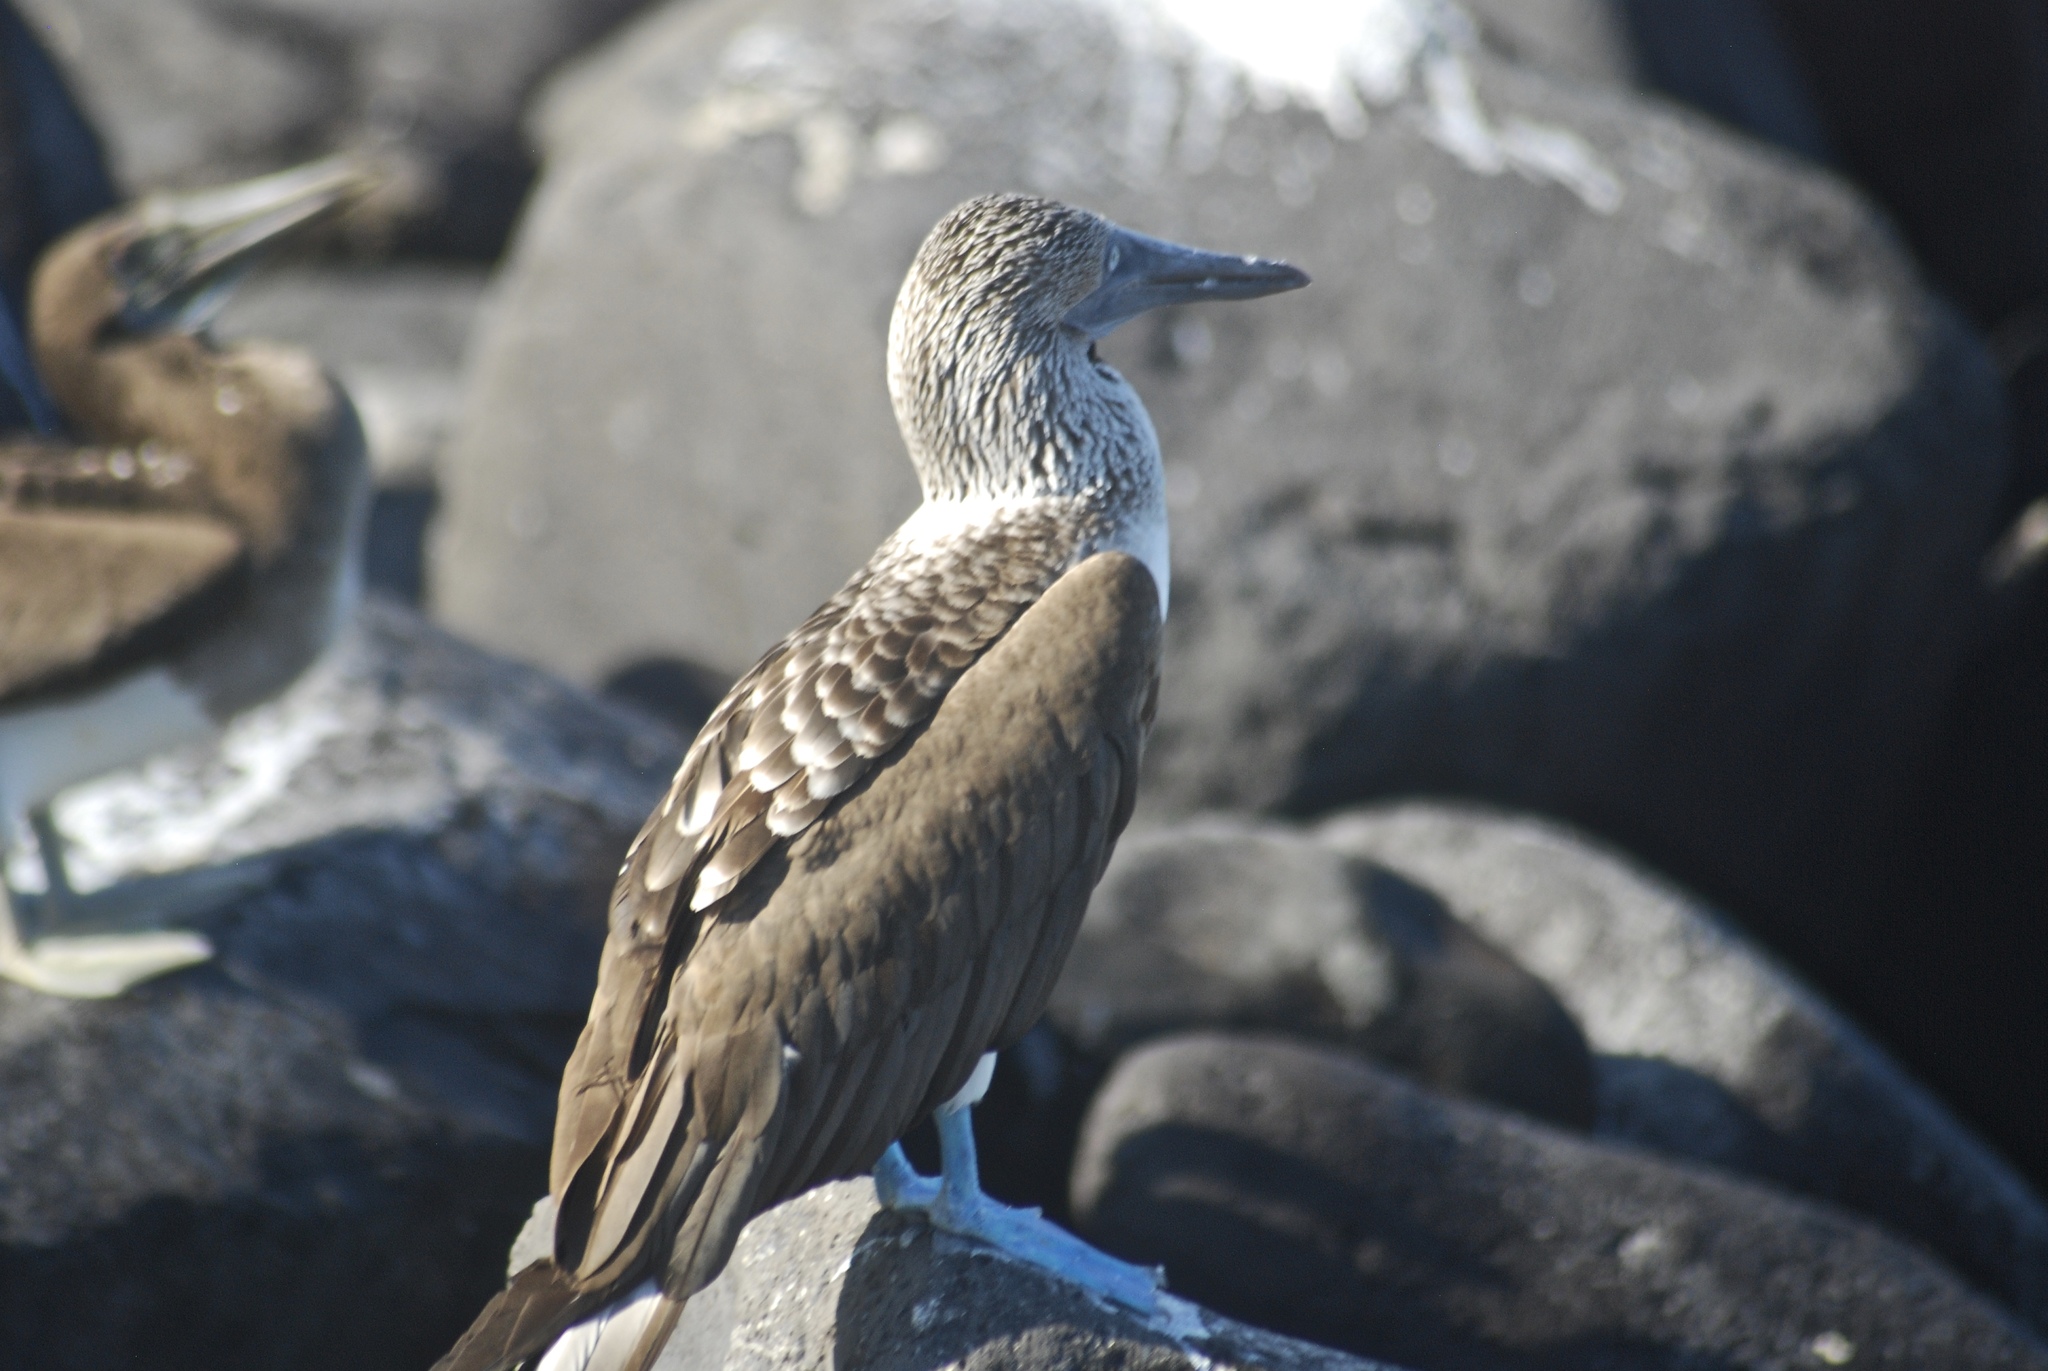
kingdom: Animalia
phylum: Chordata
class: Aves
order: Suliformes
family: Sulidae
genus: Sula
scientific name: Sula nebouxii
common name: Blue-footed booby
